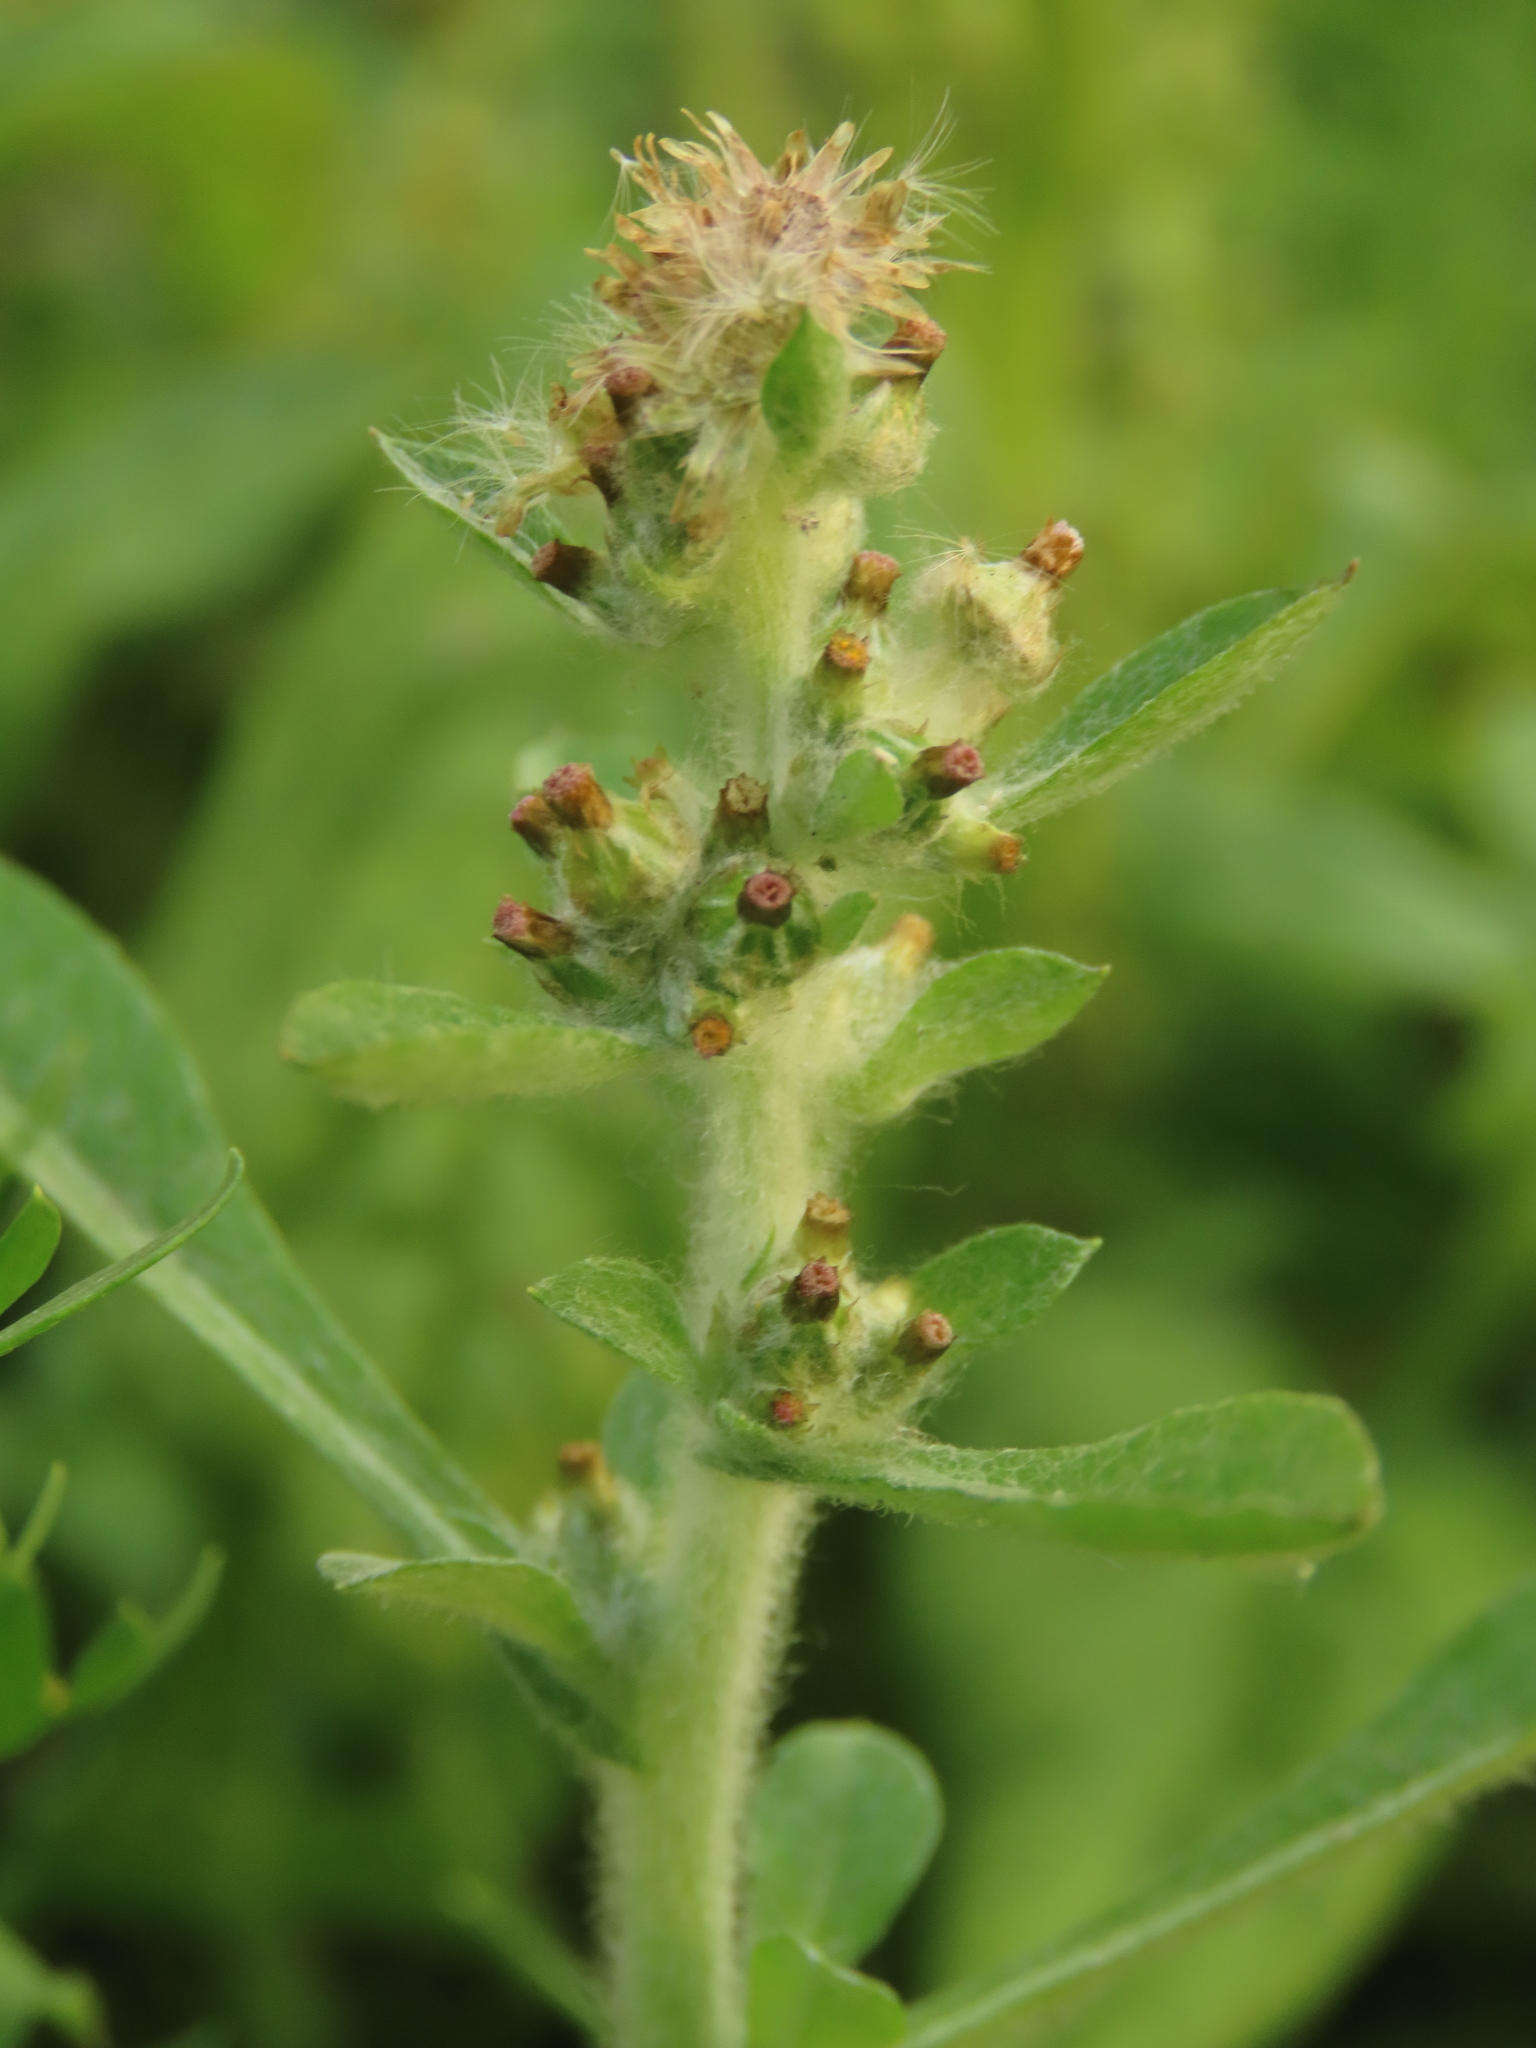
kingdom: Plantae
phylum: Tracheophyta
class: Magnoliopsida
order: Asterales
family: Asteraceae
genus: Gamochaeta
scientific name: Gamochaeta pensylvanica
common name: Pennsylvania everlasting
